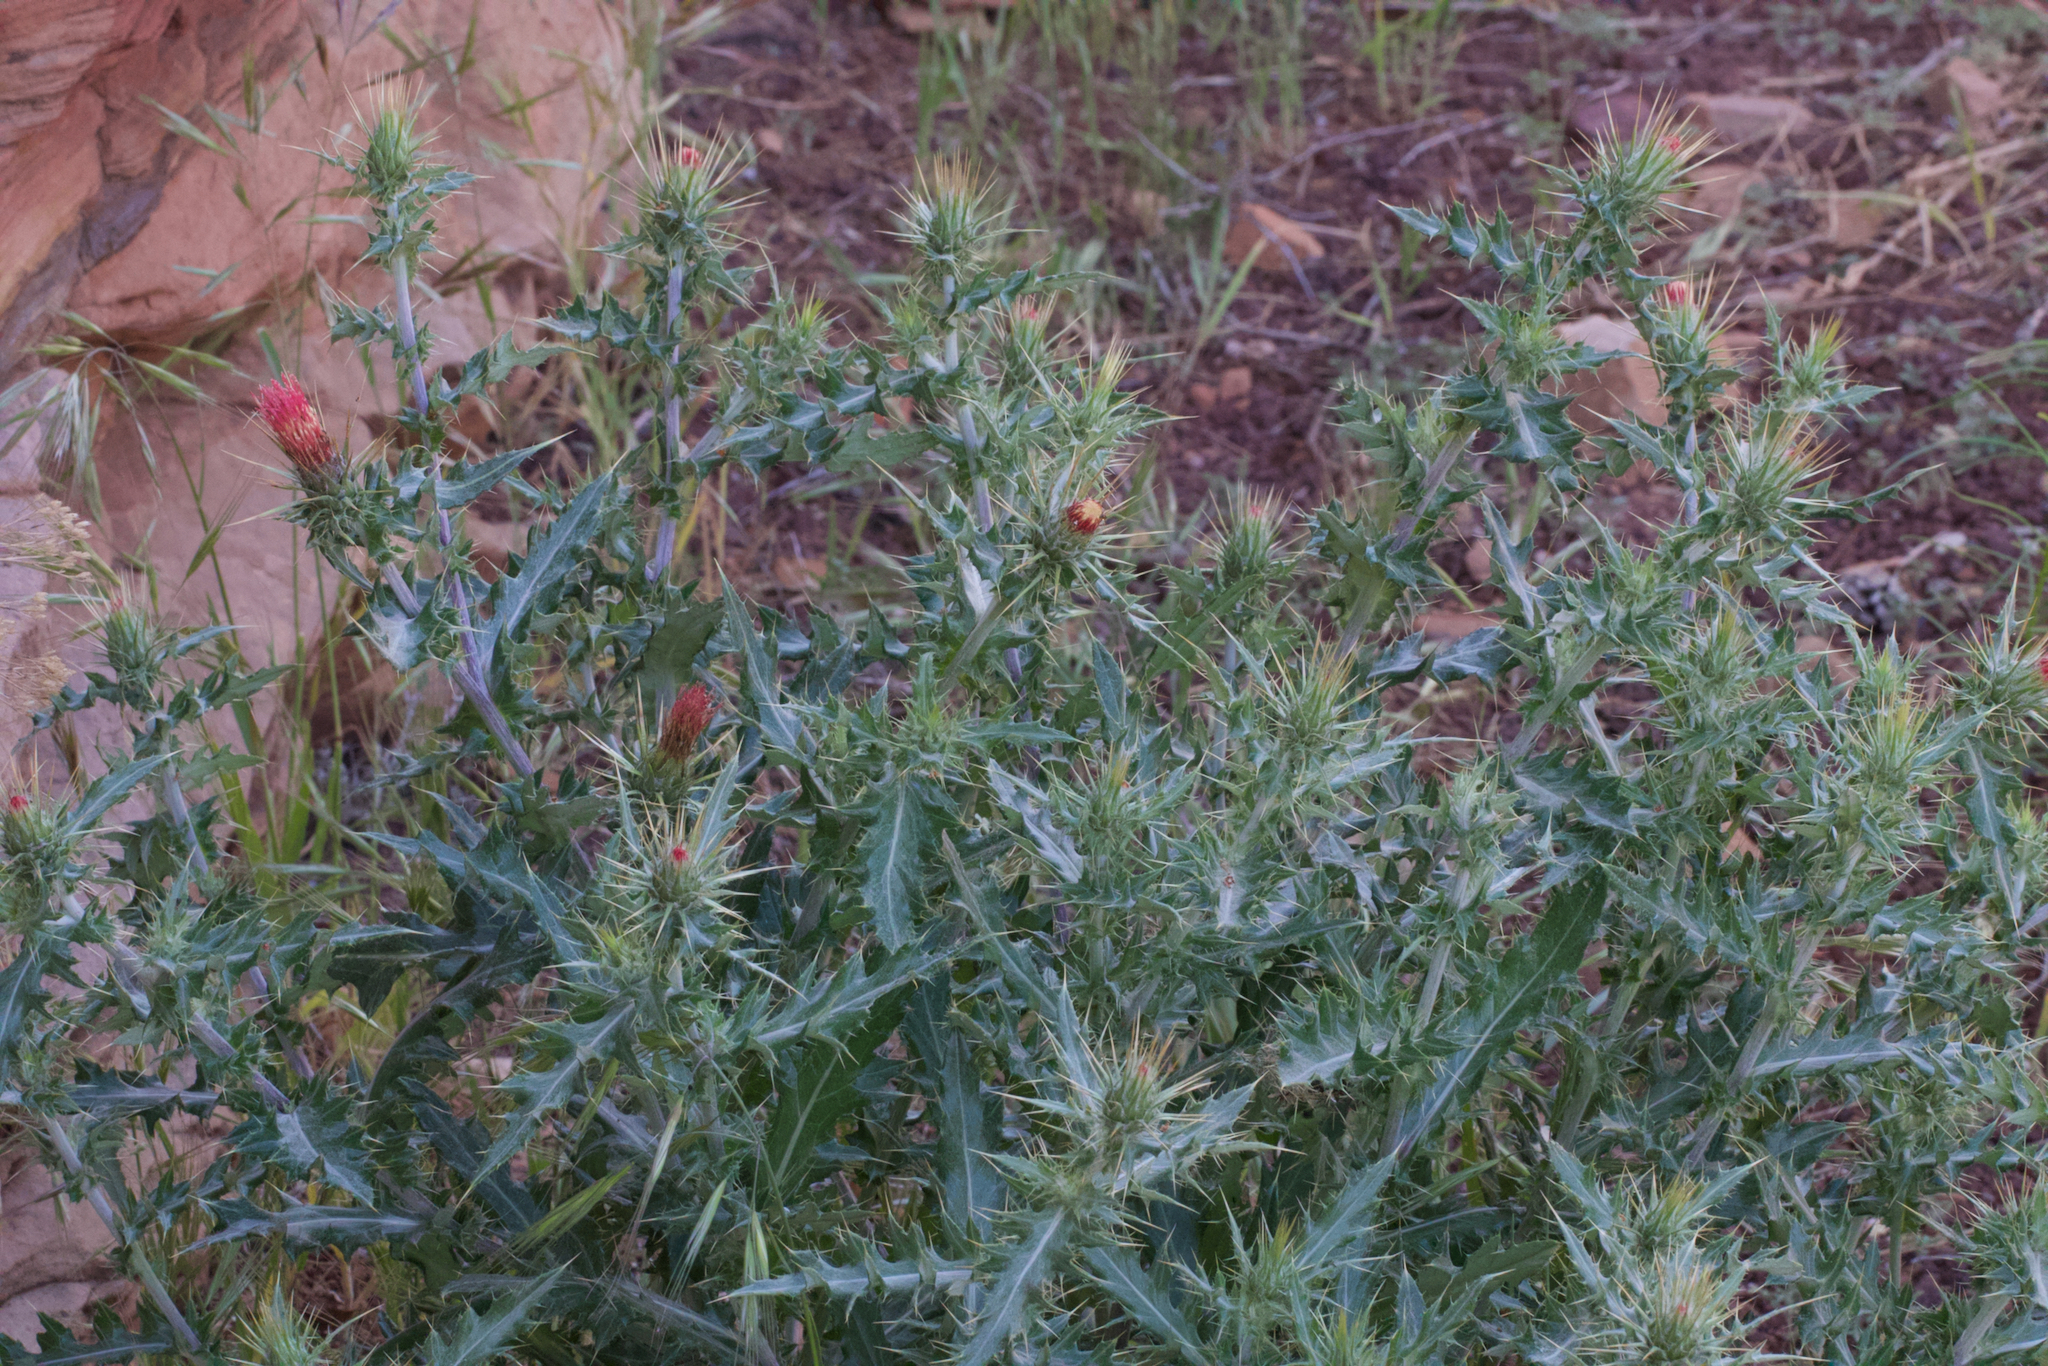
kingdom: Plantae
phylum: Tracheophyta
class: Magnoliopsida
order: Asterales
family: Asteraceae
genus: Cirsium
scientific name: Cirsium arizonicum
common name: Arizona thistle
